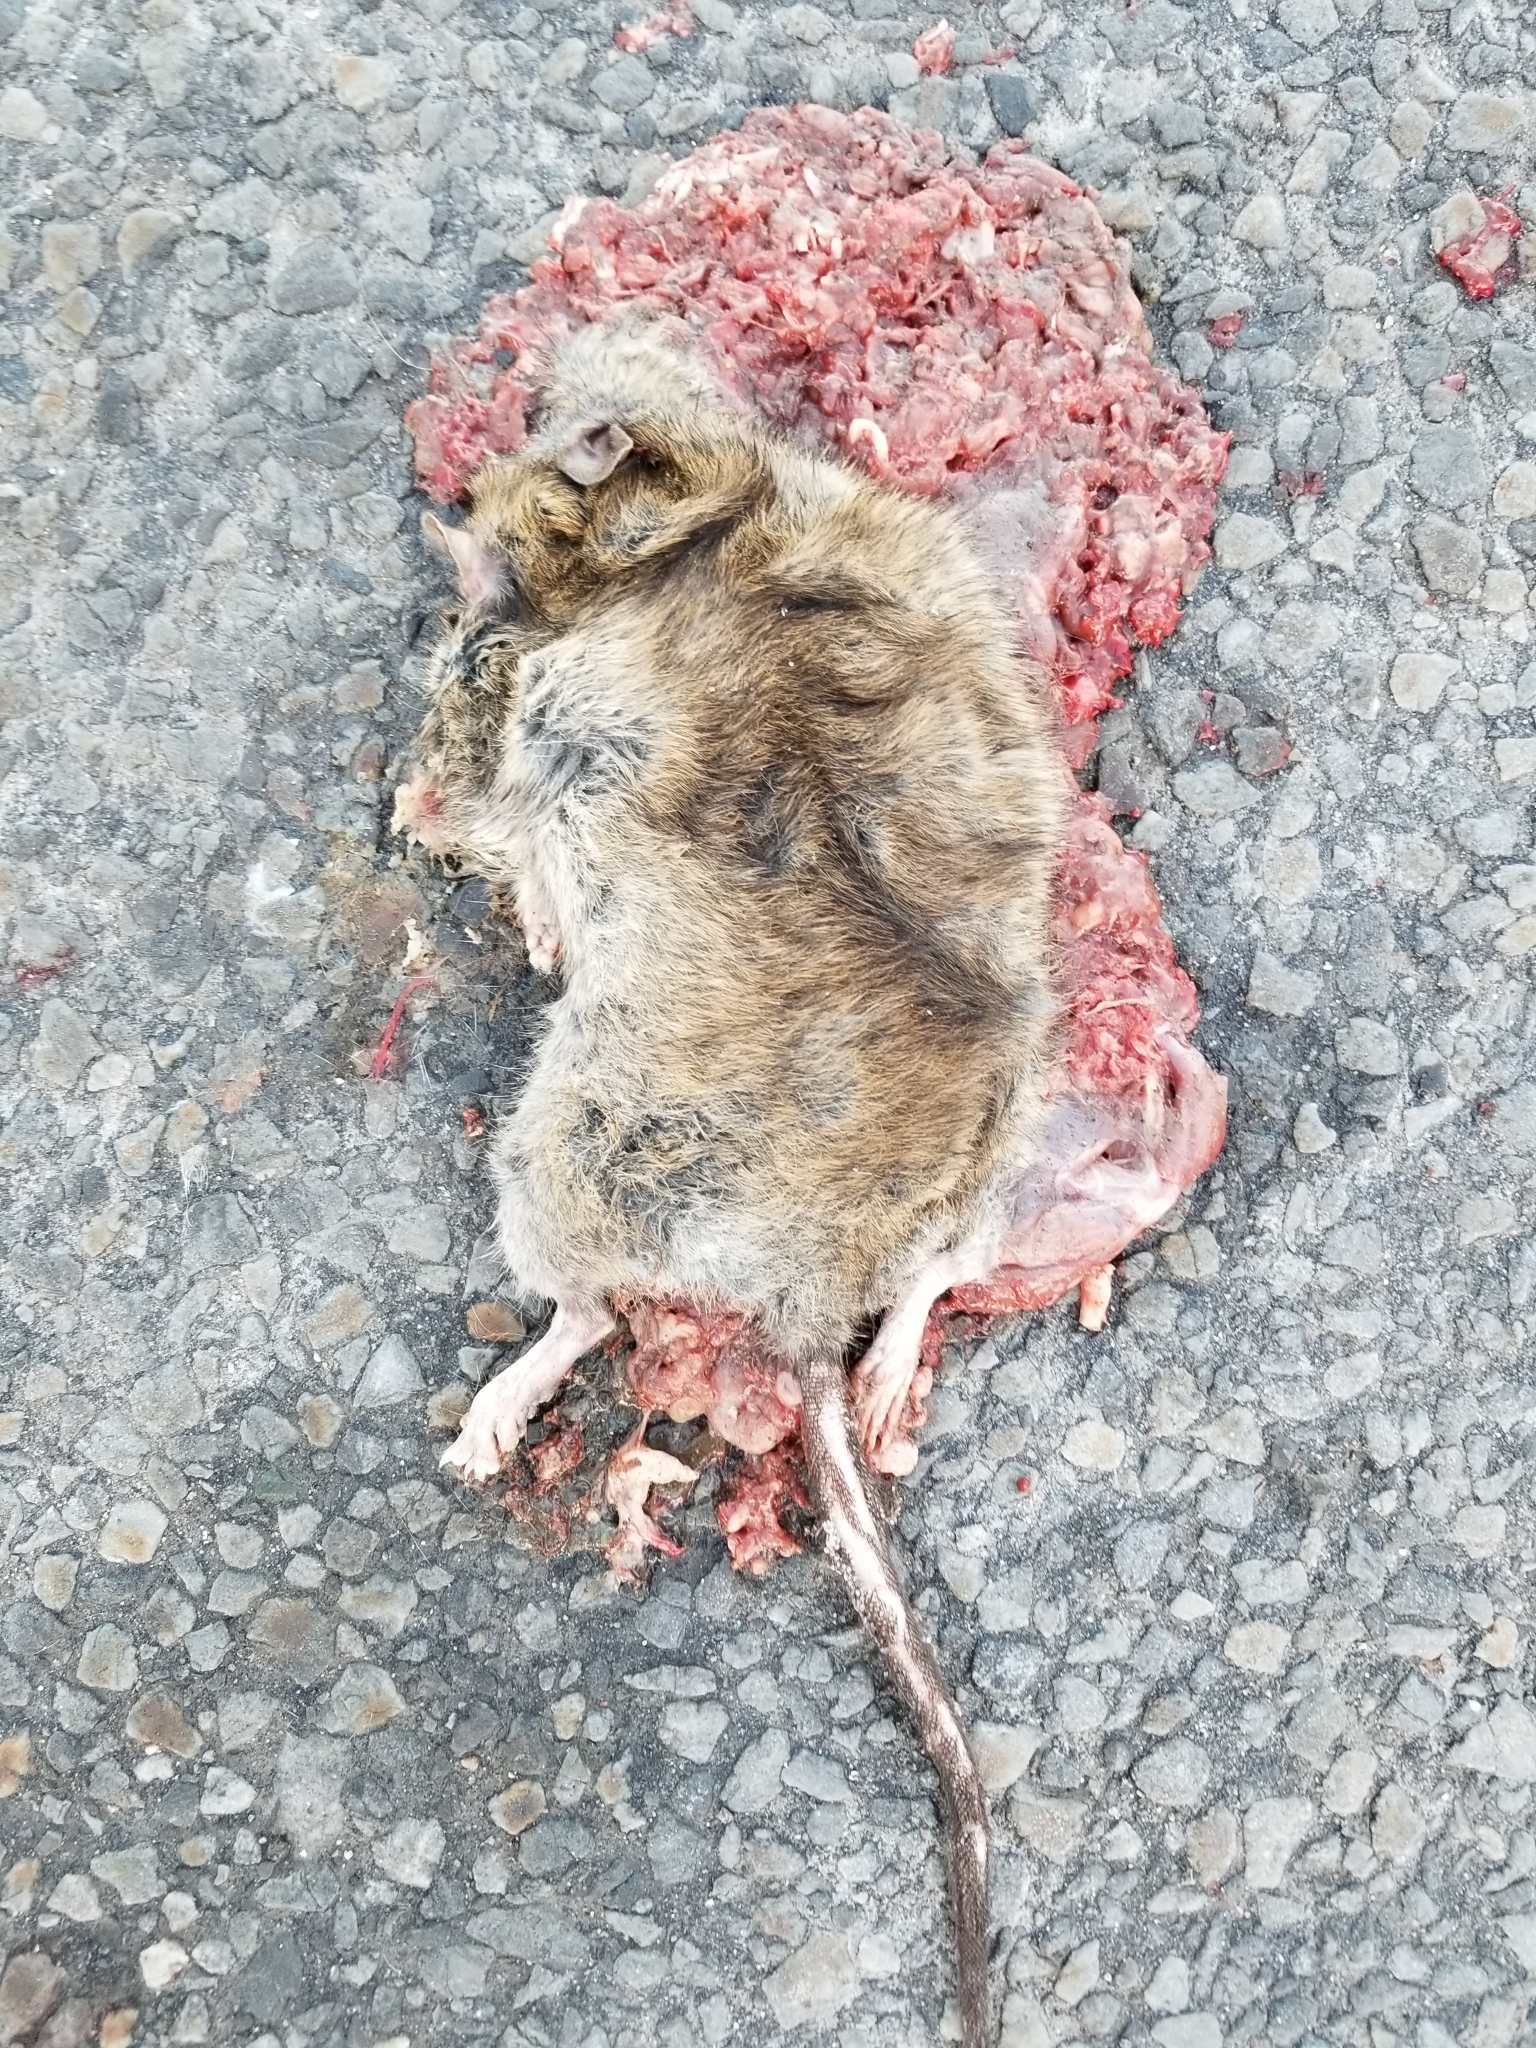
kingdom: Animalia
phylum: Chordata
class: Mammalia
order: Rodentia
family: Muridae
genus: Rattus
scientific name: Rattus norvegicus
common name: Brown rat
